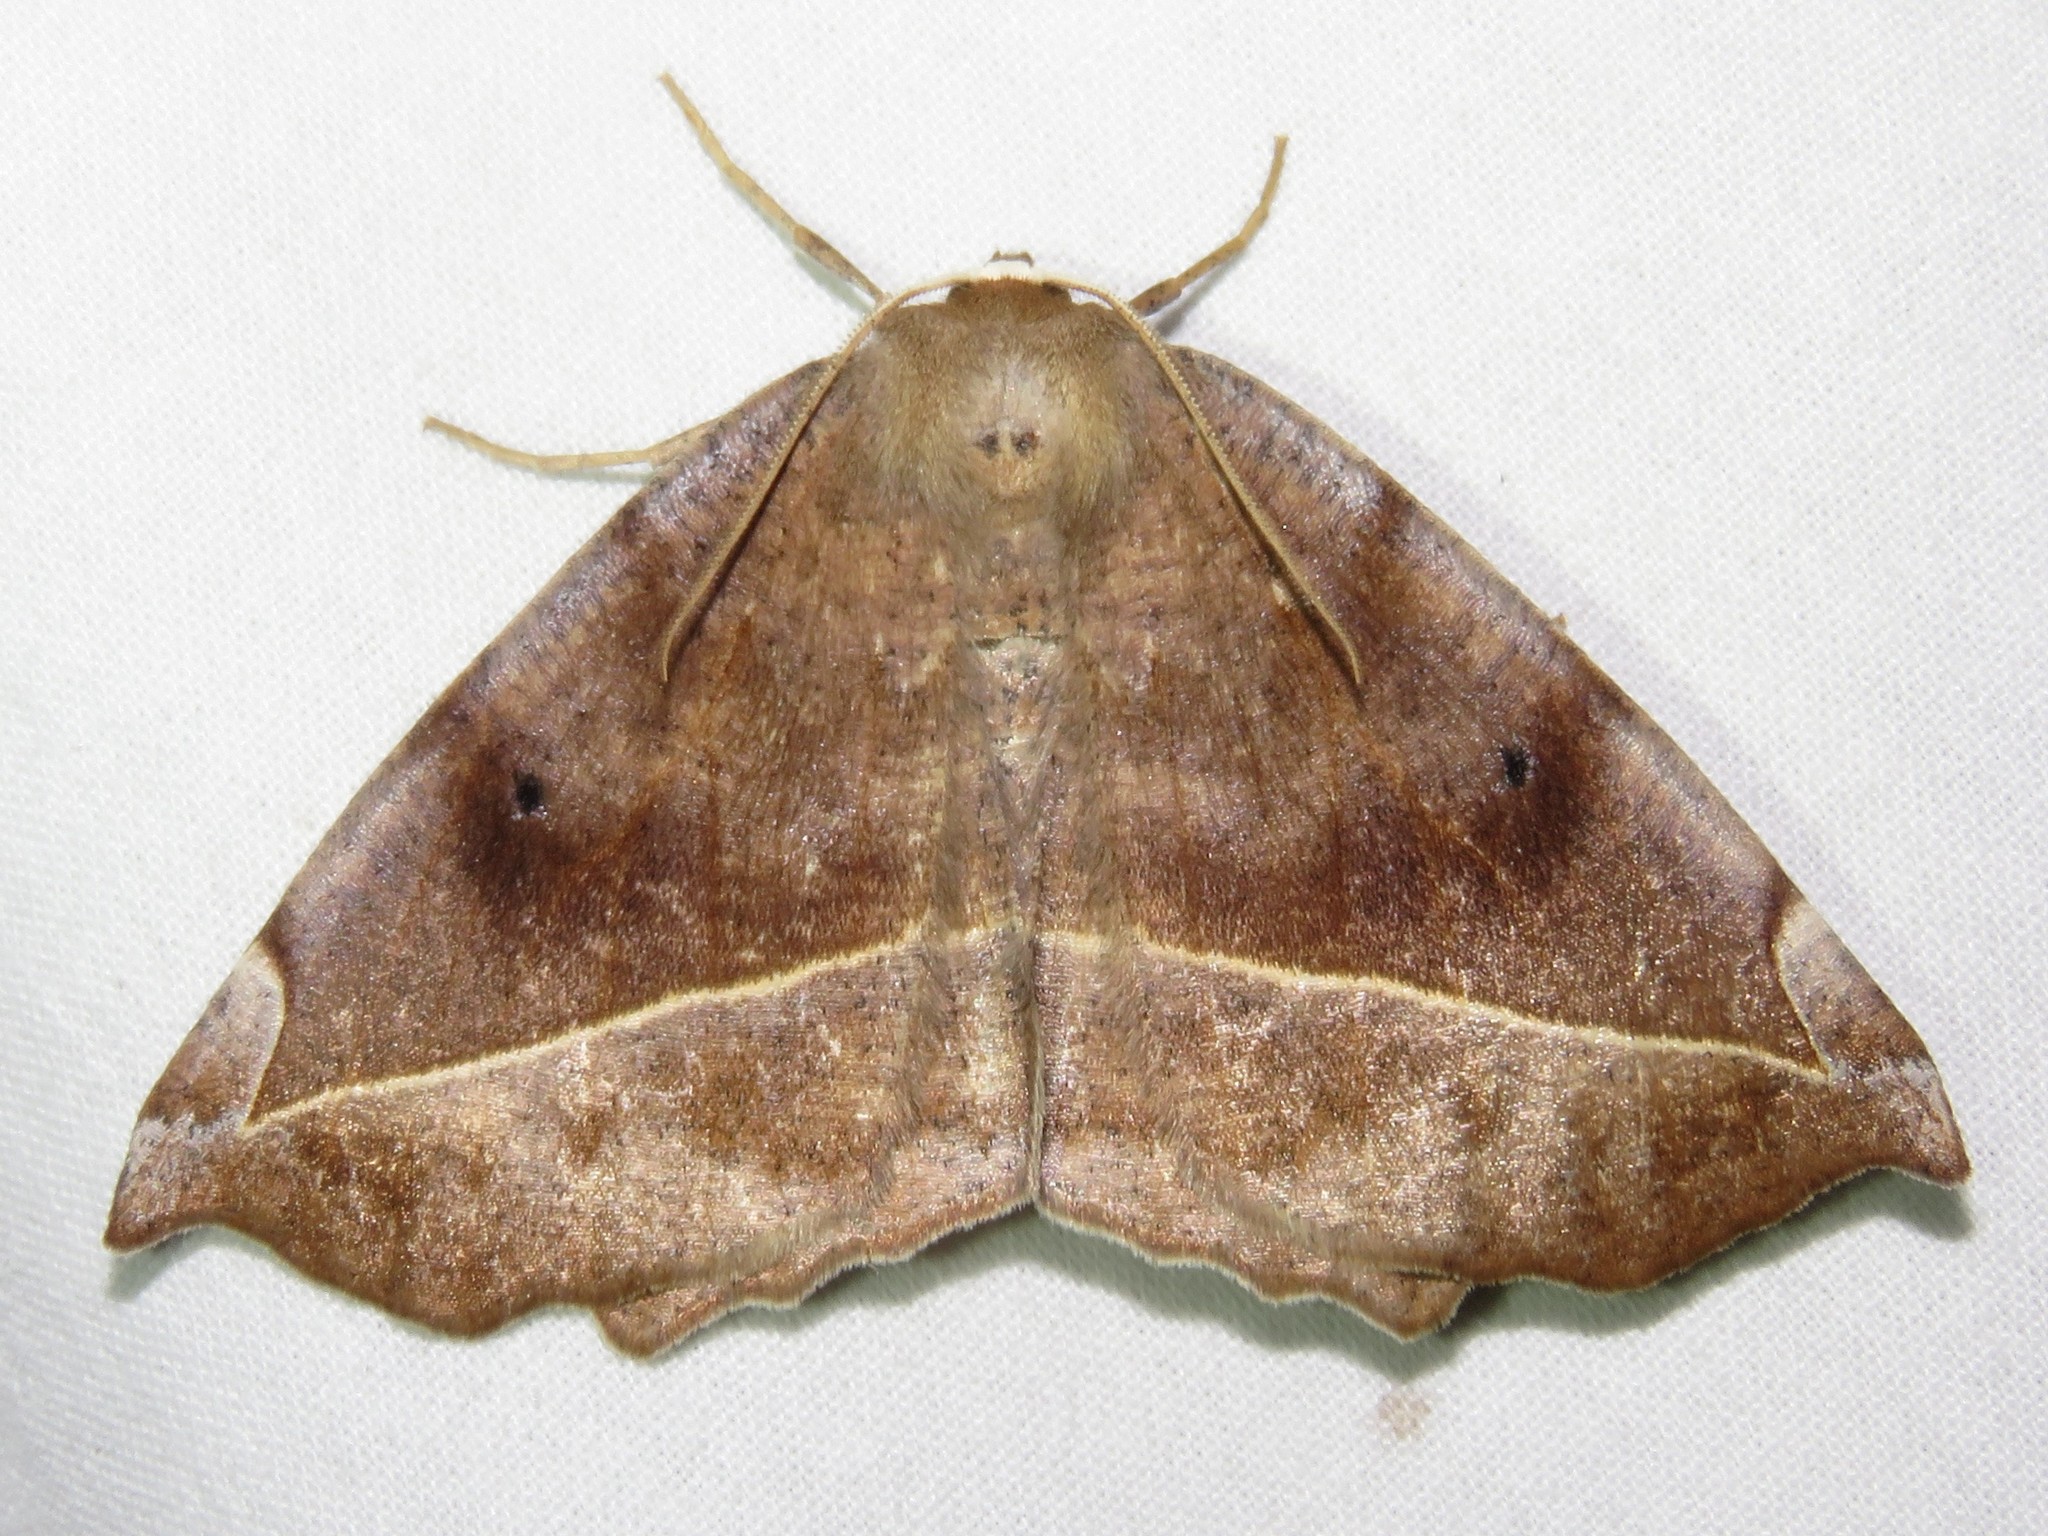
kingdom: Animalia
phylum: Arthropoda
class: Insecta
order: Lepidoptera
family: Geometridae
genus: Eutrapela
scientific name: Eutrapela clemataria
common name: Curved-toothed geometer
